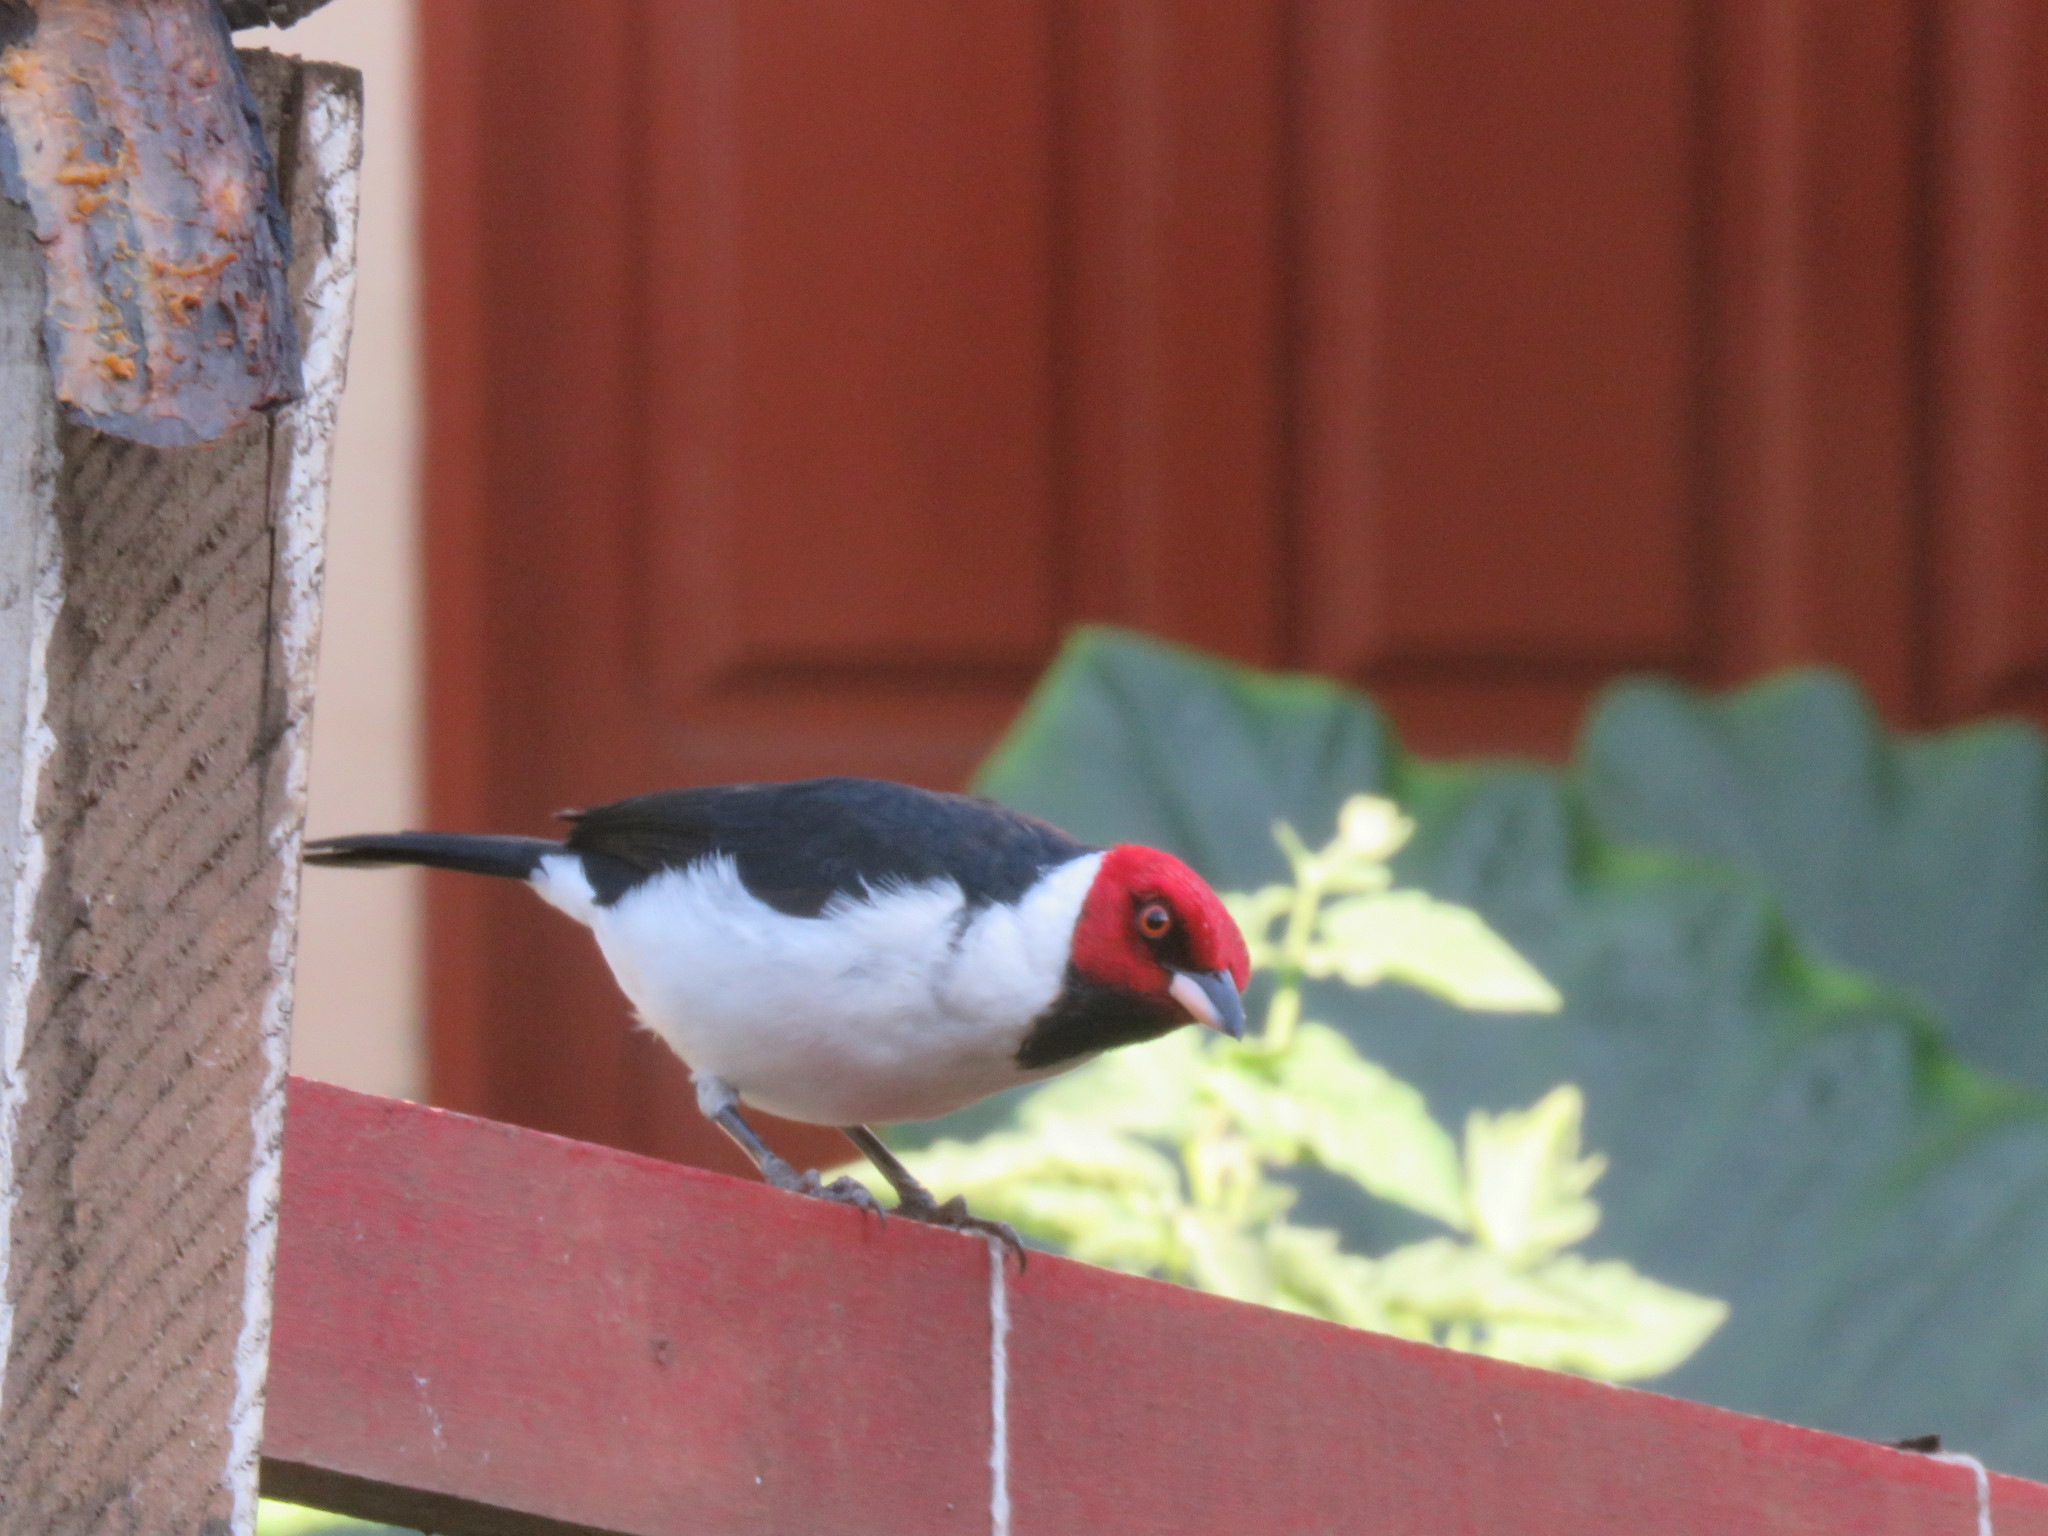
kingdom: Animalia
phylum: Chordata
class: Aves
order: Passeriformes
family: Thraupidae
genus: Paroaria
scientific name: Paroaria gularis
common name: Red-capped cardinal
